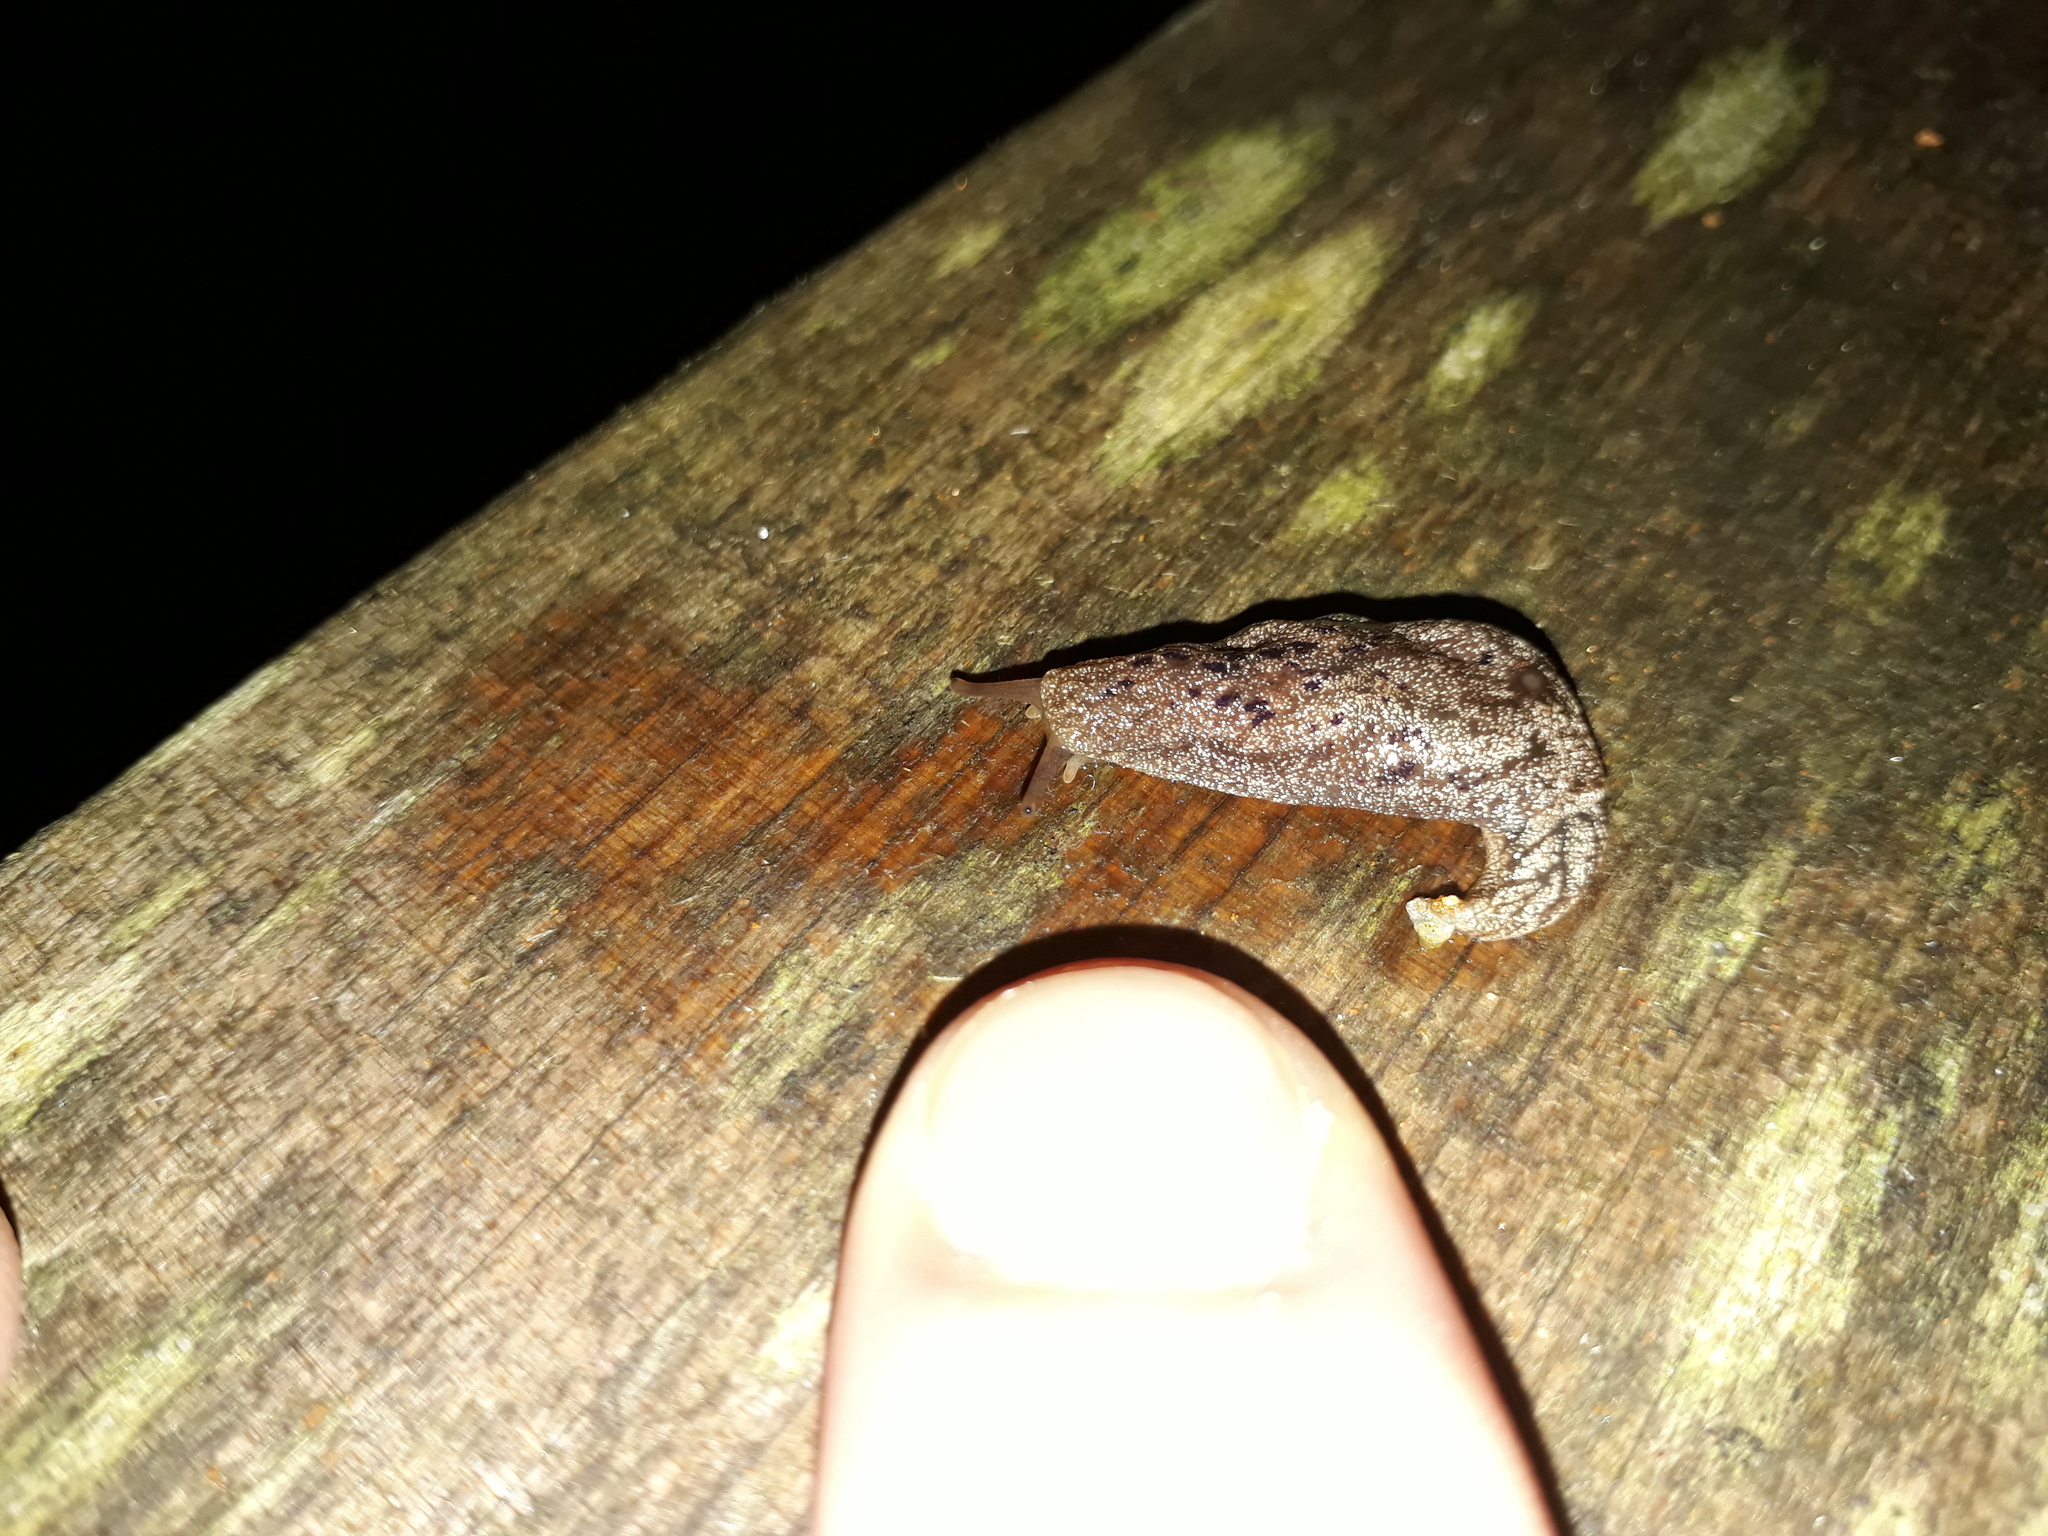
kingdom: Animalia
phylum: Mollusca
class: Gastropoda
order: Stylommatophora
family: Cystopeltidae
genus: Cystopelta
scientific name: Cystopelta purpurea
